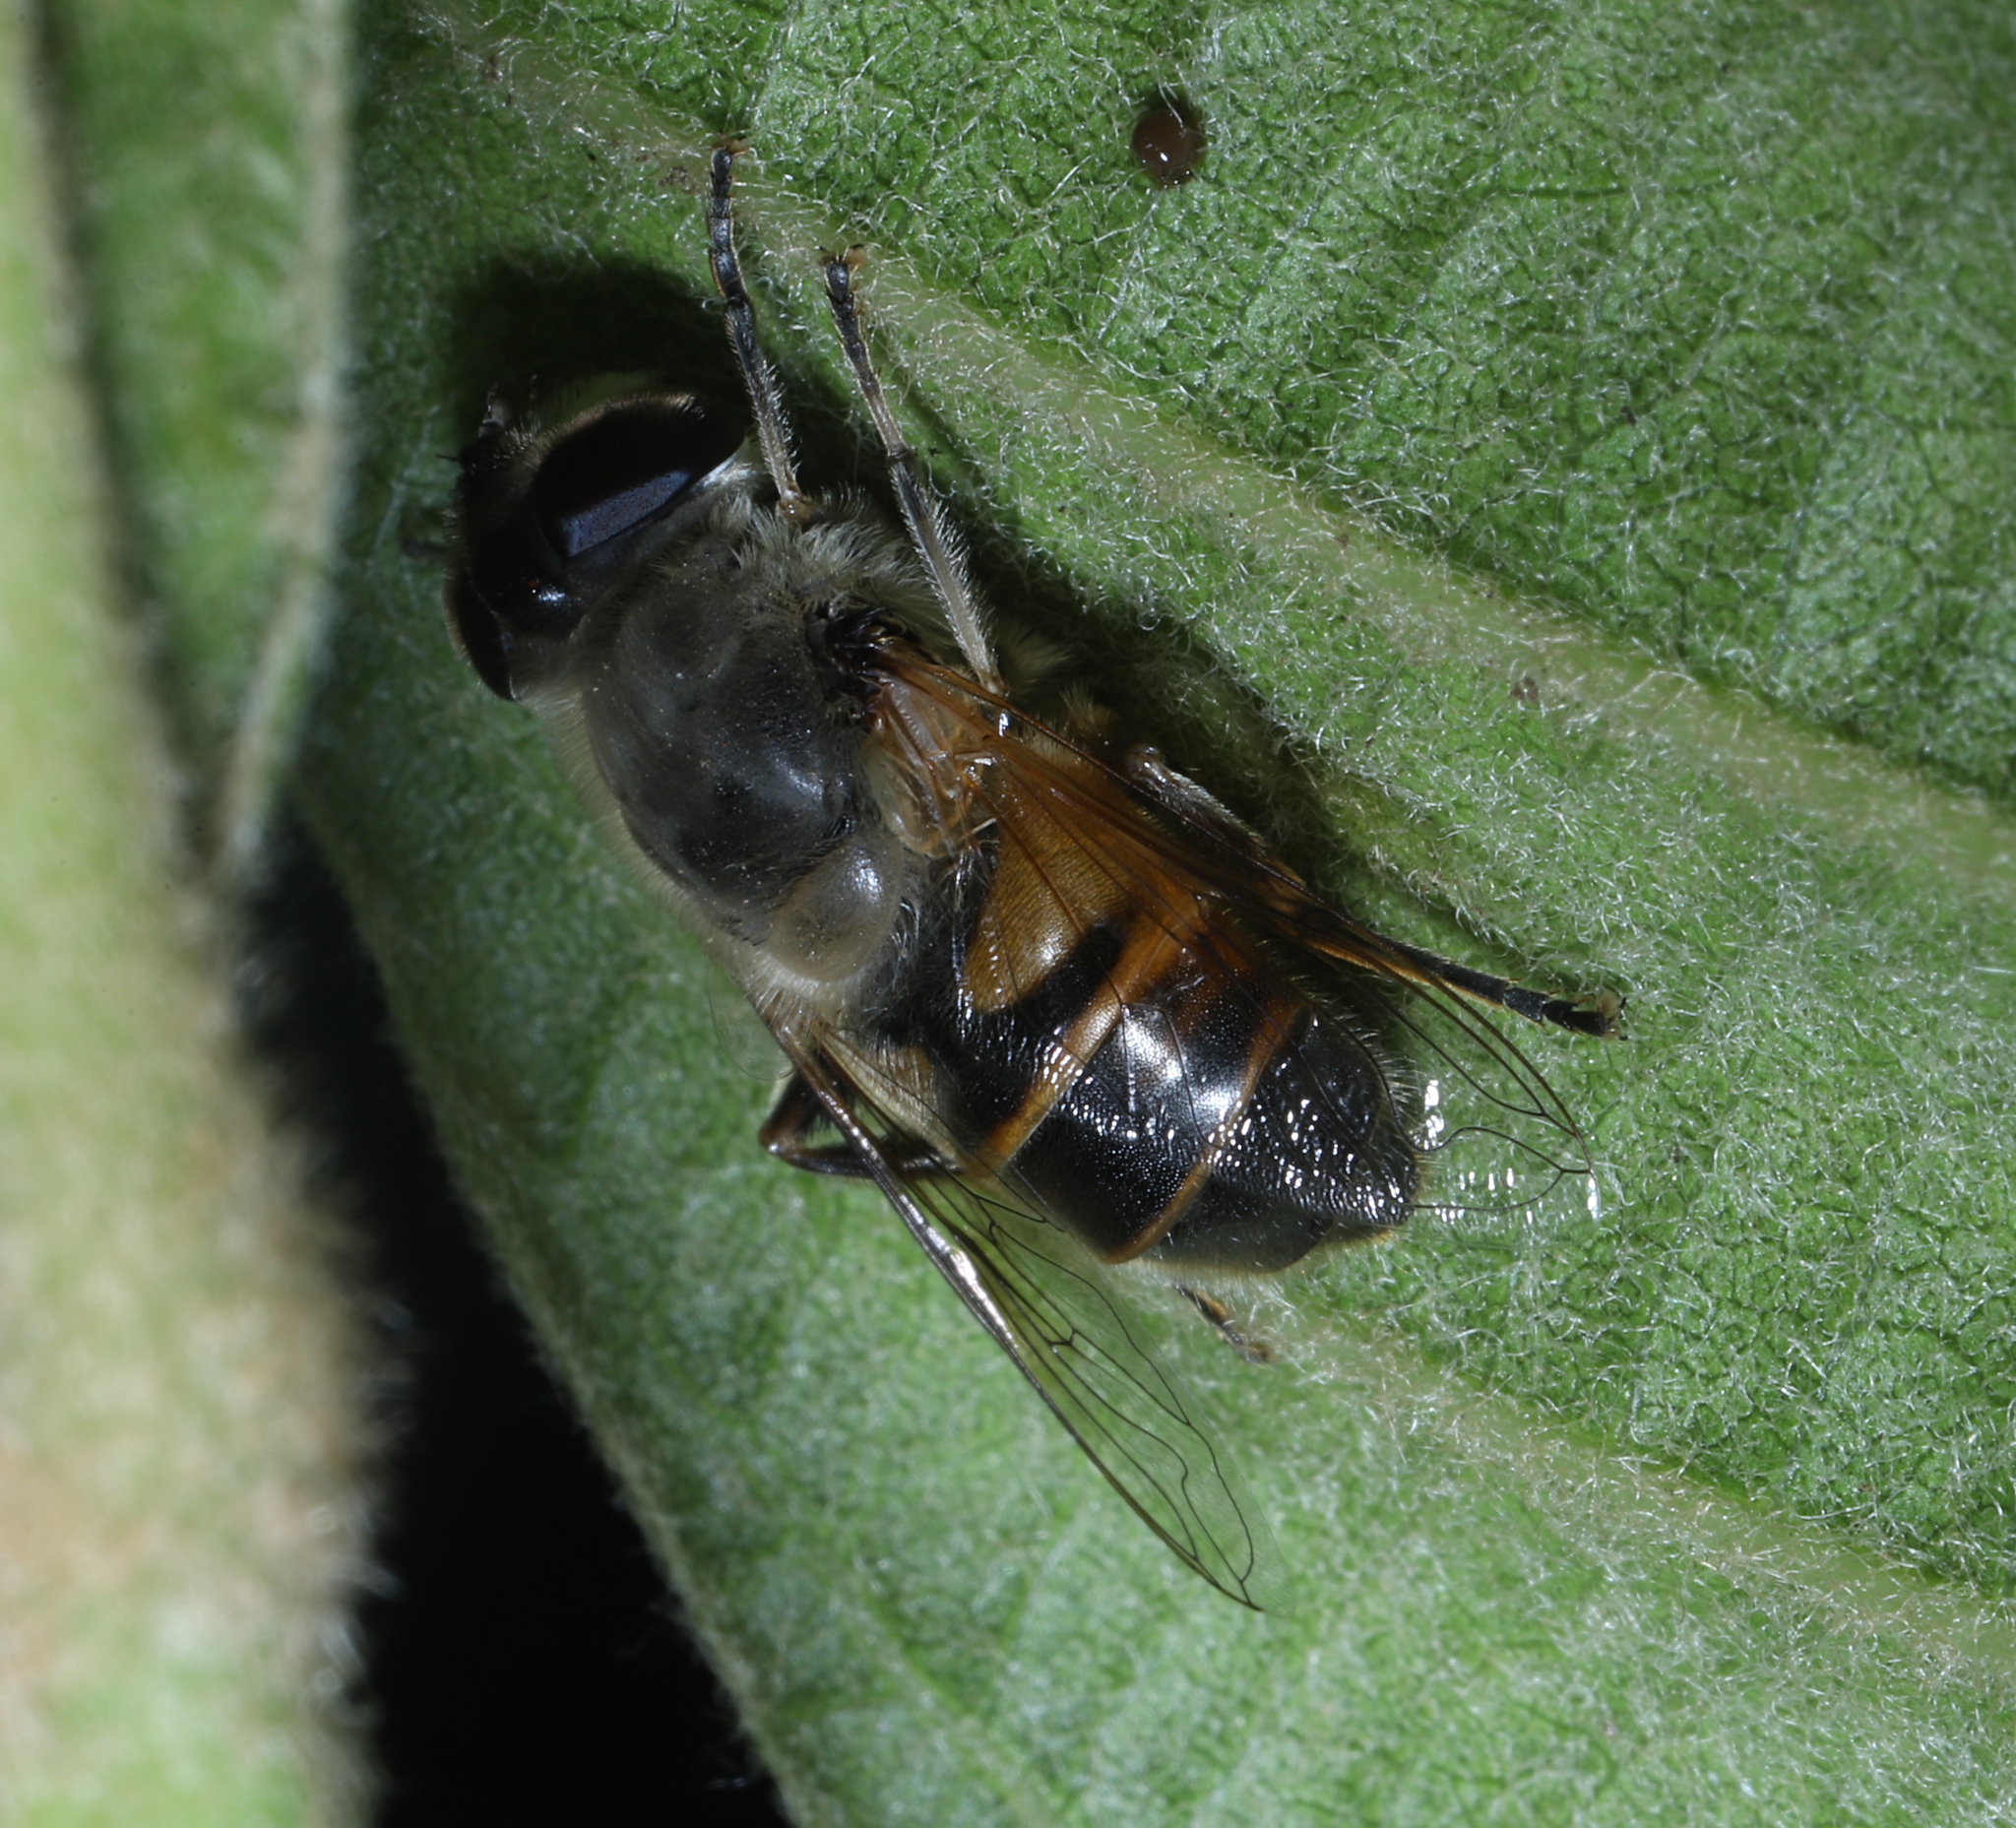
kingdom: Animalia
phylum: Arthropoda
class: Insecta
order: Diptera
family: Syrphidae
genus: Eristalis
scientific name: Eristalis tenax
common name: Drone fly
